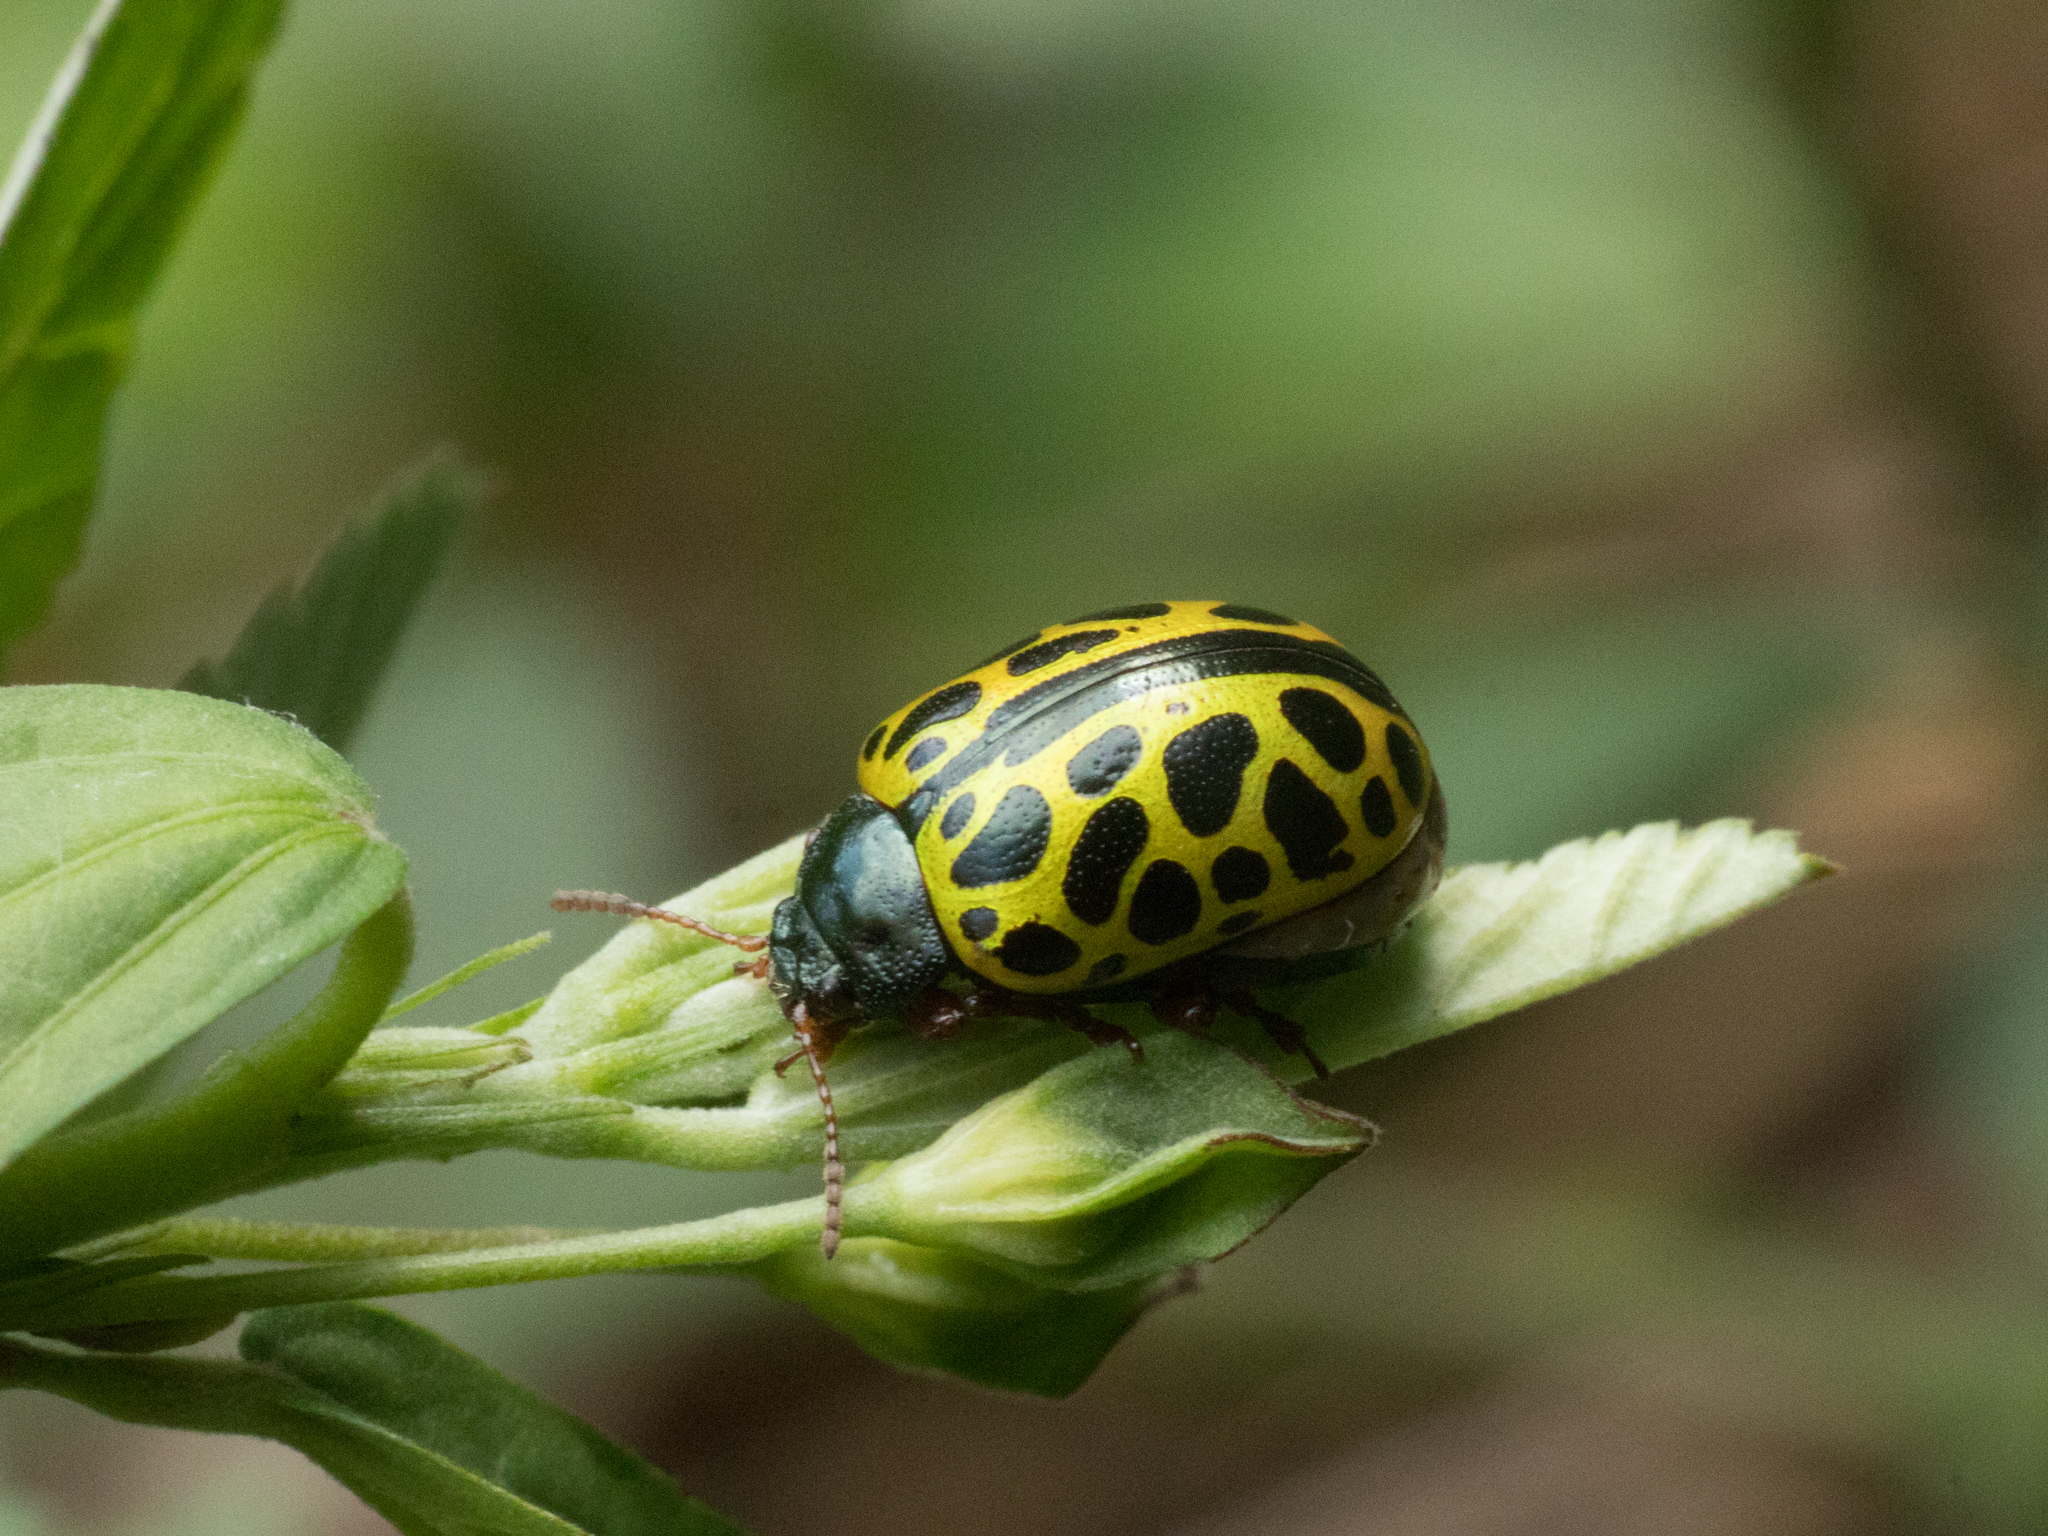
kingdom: Animalia
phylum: Arthropoda
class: Insecta
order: Coleoptera
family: Chrysomelidae
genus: Calligrapha
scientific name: Calligrapha polyspila
